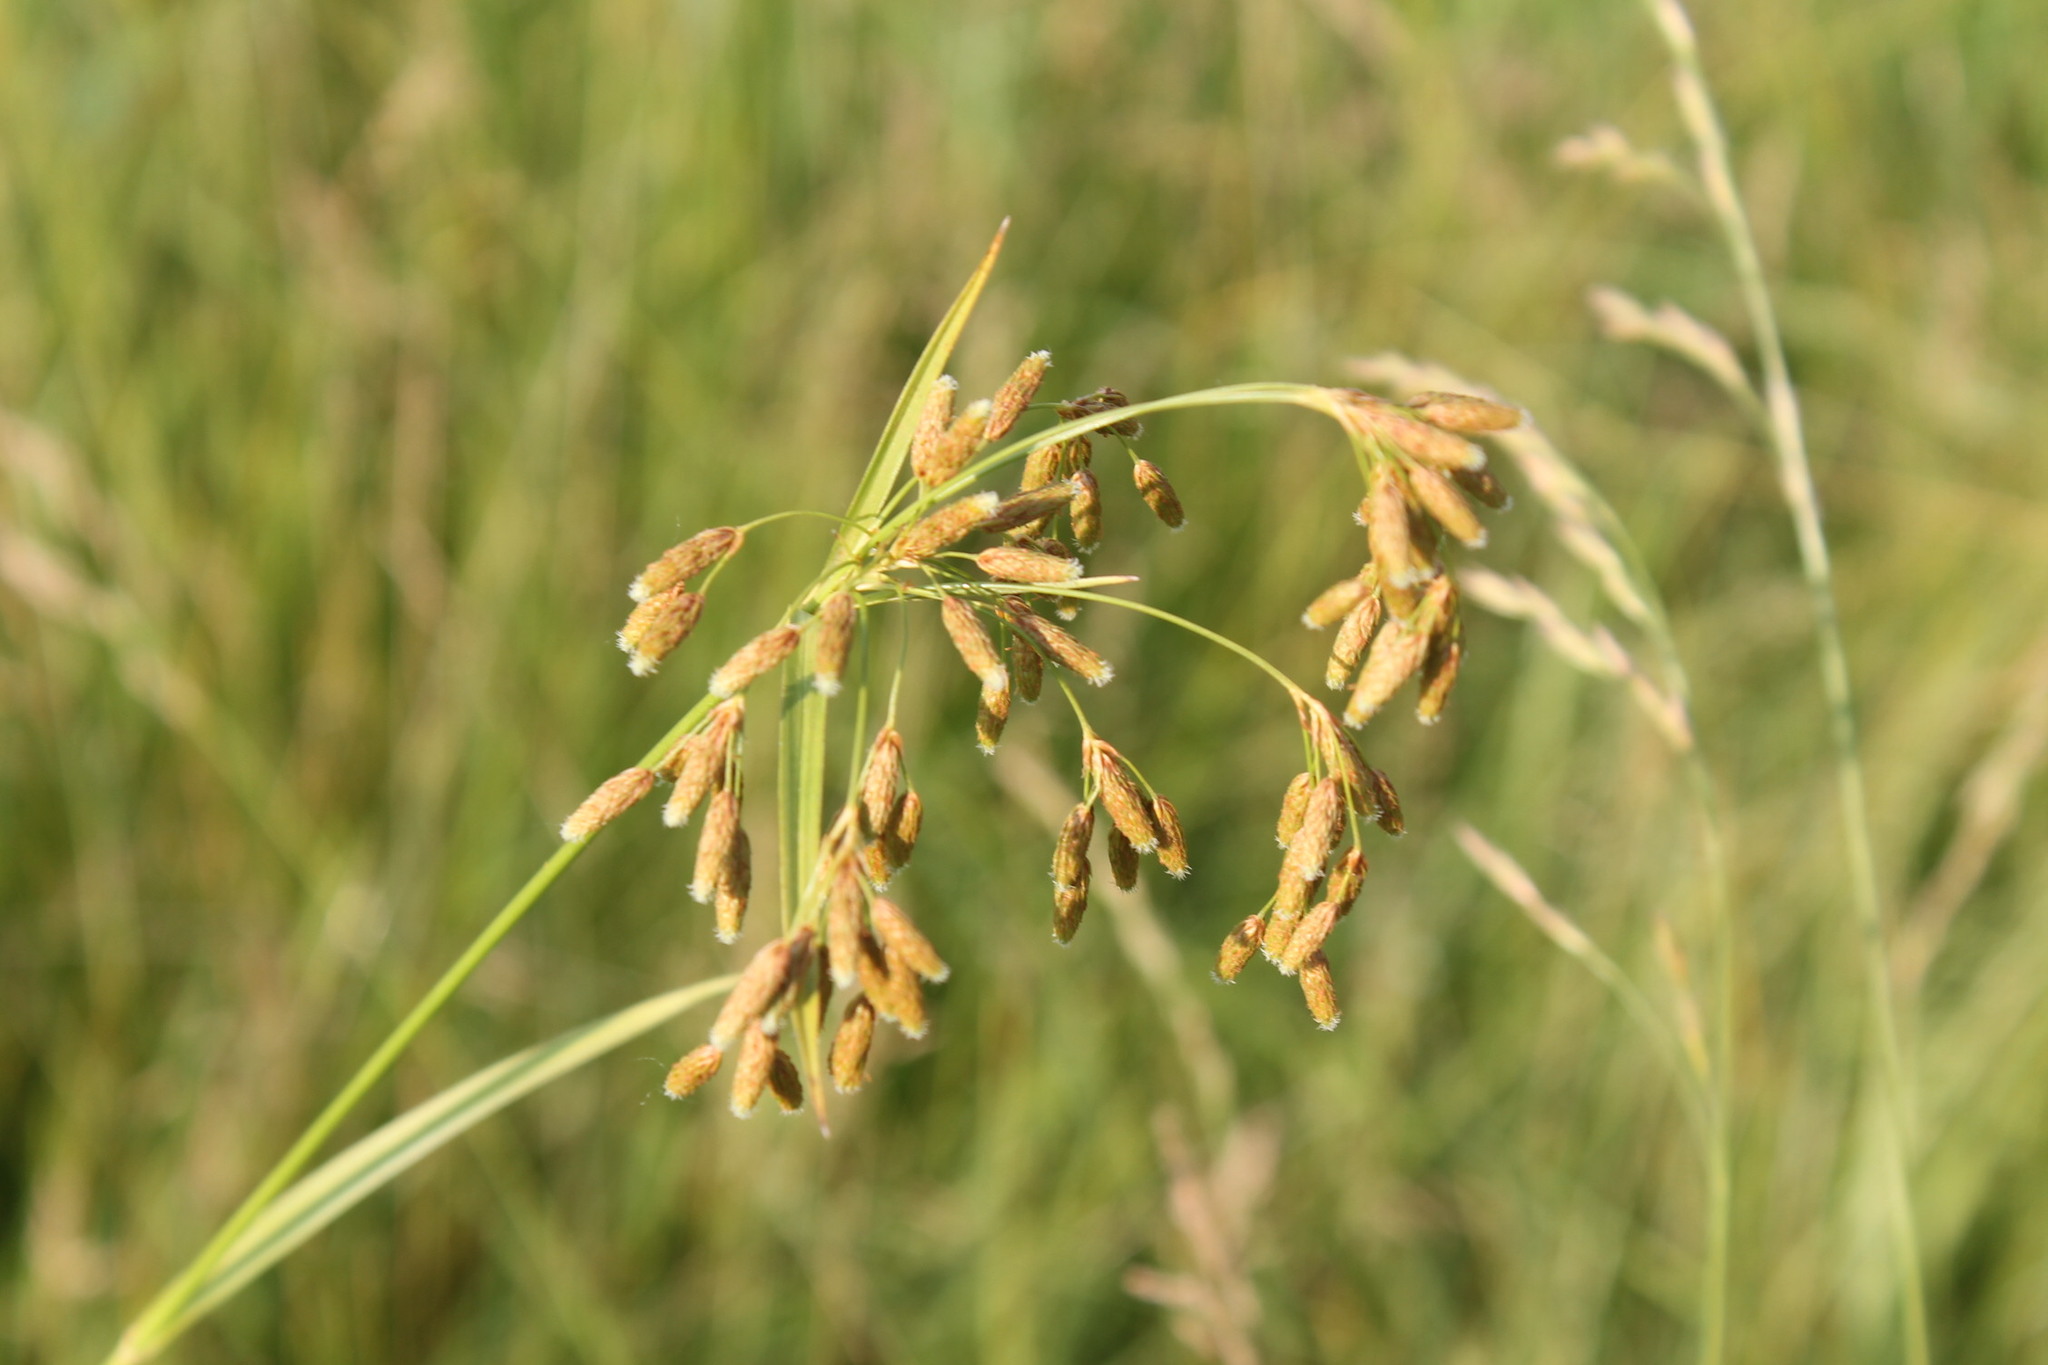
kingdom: Plantae
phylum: Tracheophyta
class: Liliopsida
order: Poales
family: Cyperaceae
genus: Scirpus
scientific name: Scirpus pendulus
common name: Nodding bulrush
